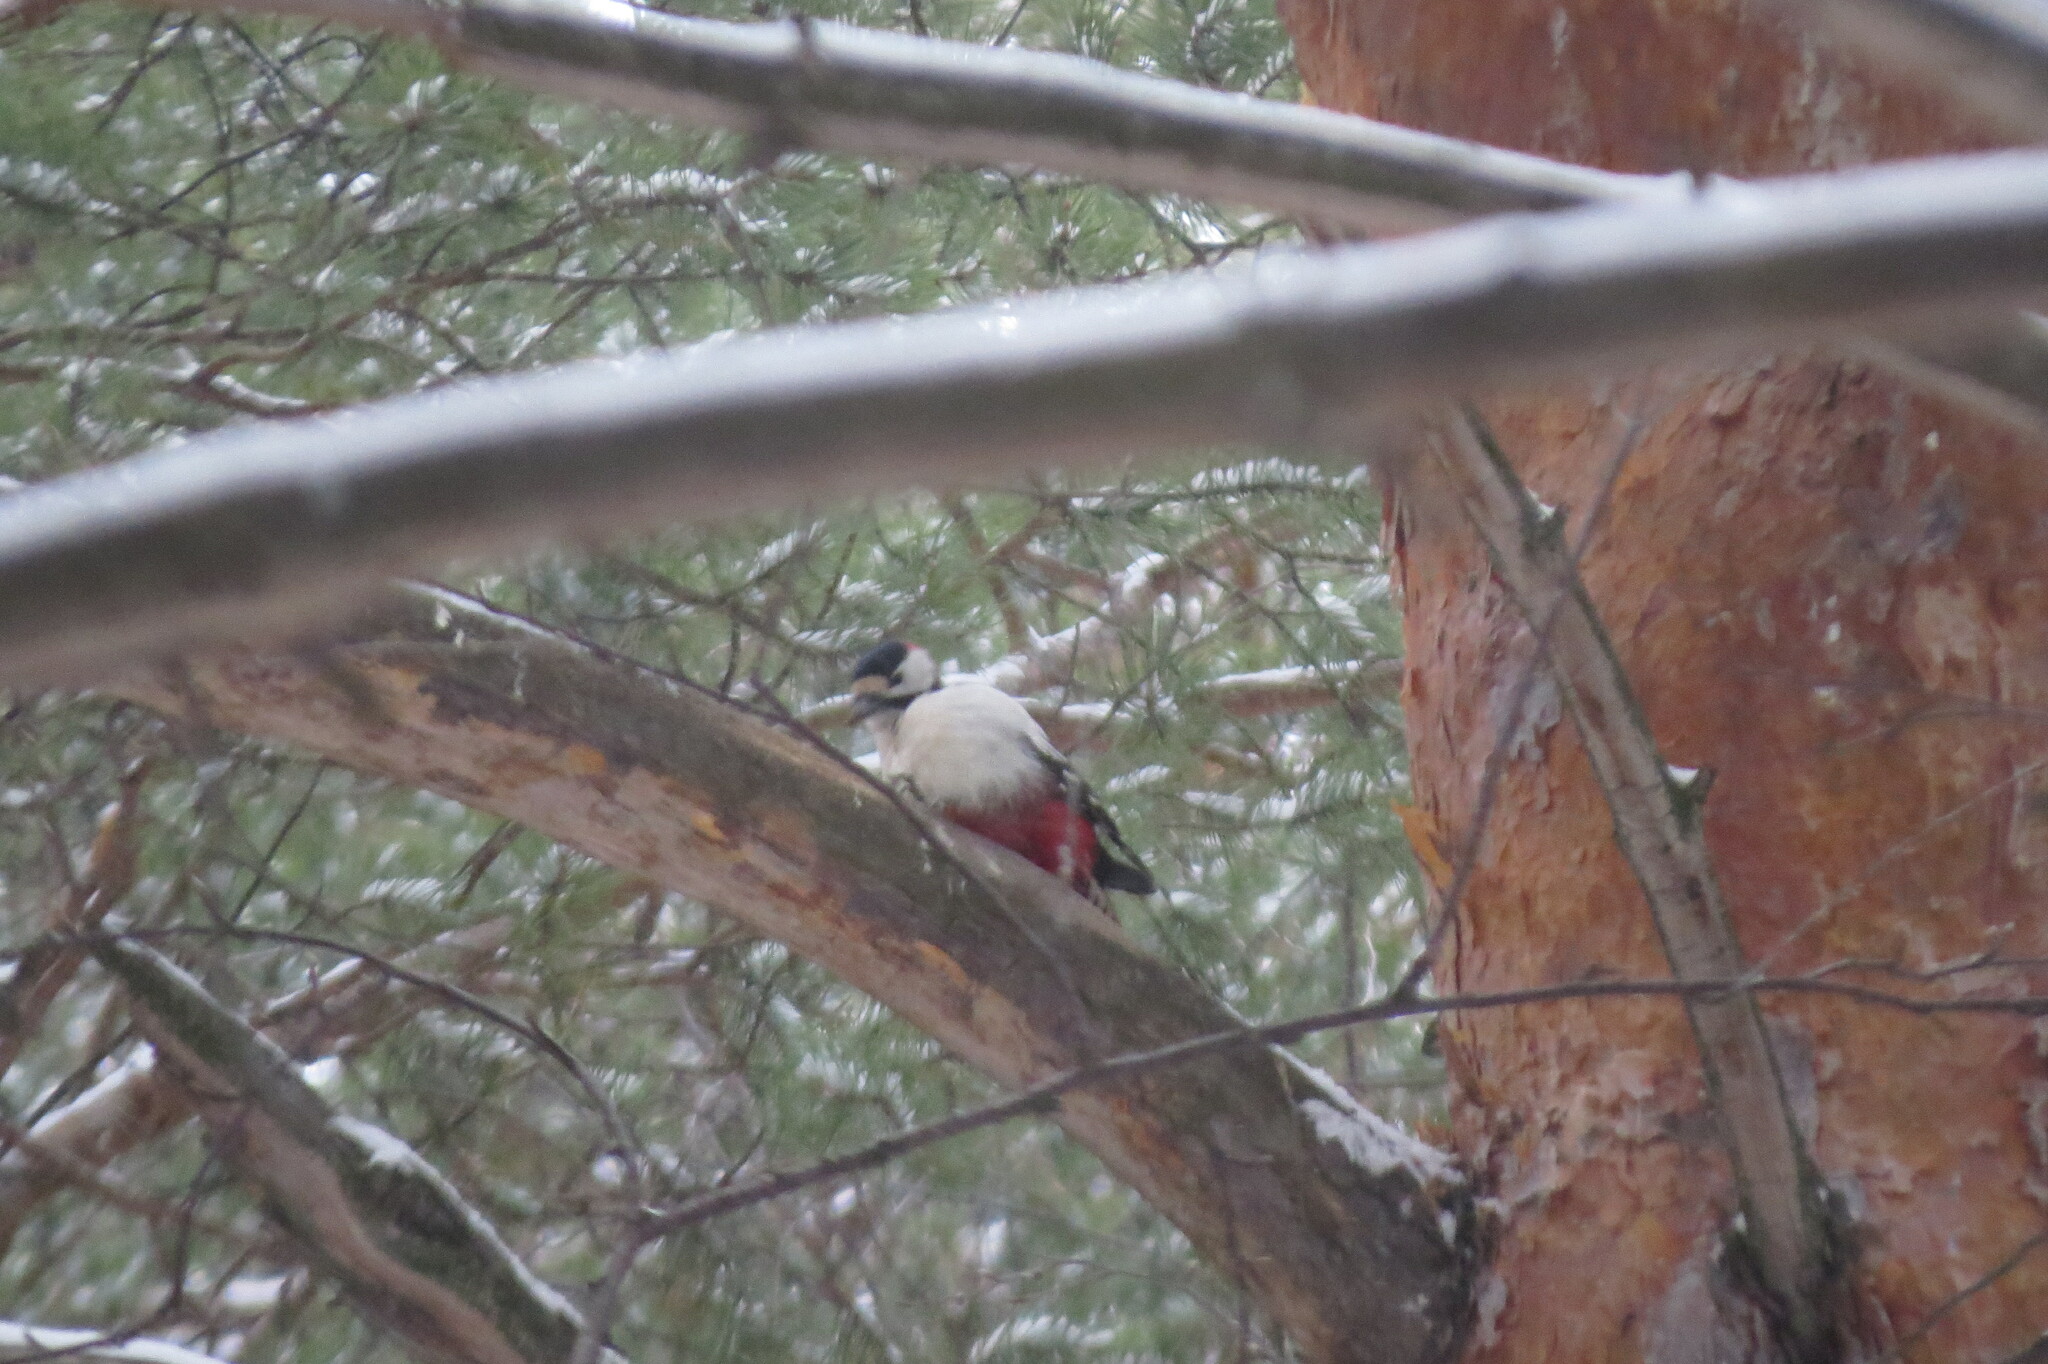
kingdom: Animalia
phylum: Chordata
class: Aves
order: Piciformes
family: Picidae
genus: Dendrocopos
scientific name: Dendrocopos major
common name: Great spotted woodpecker
